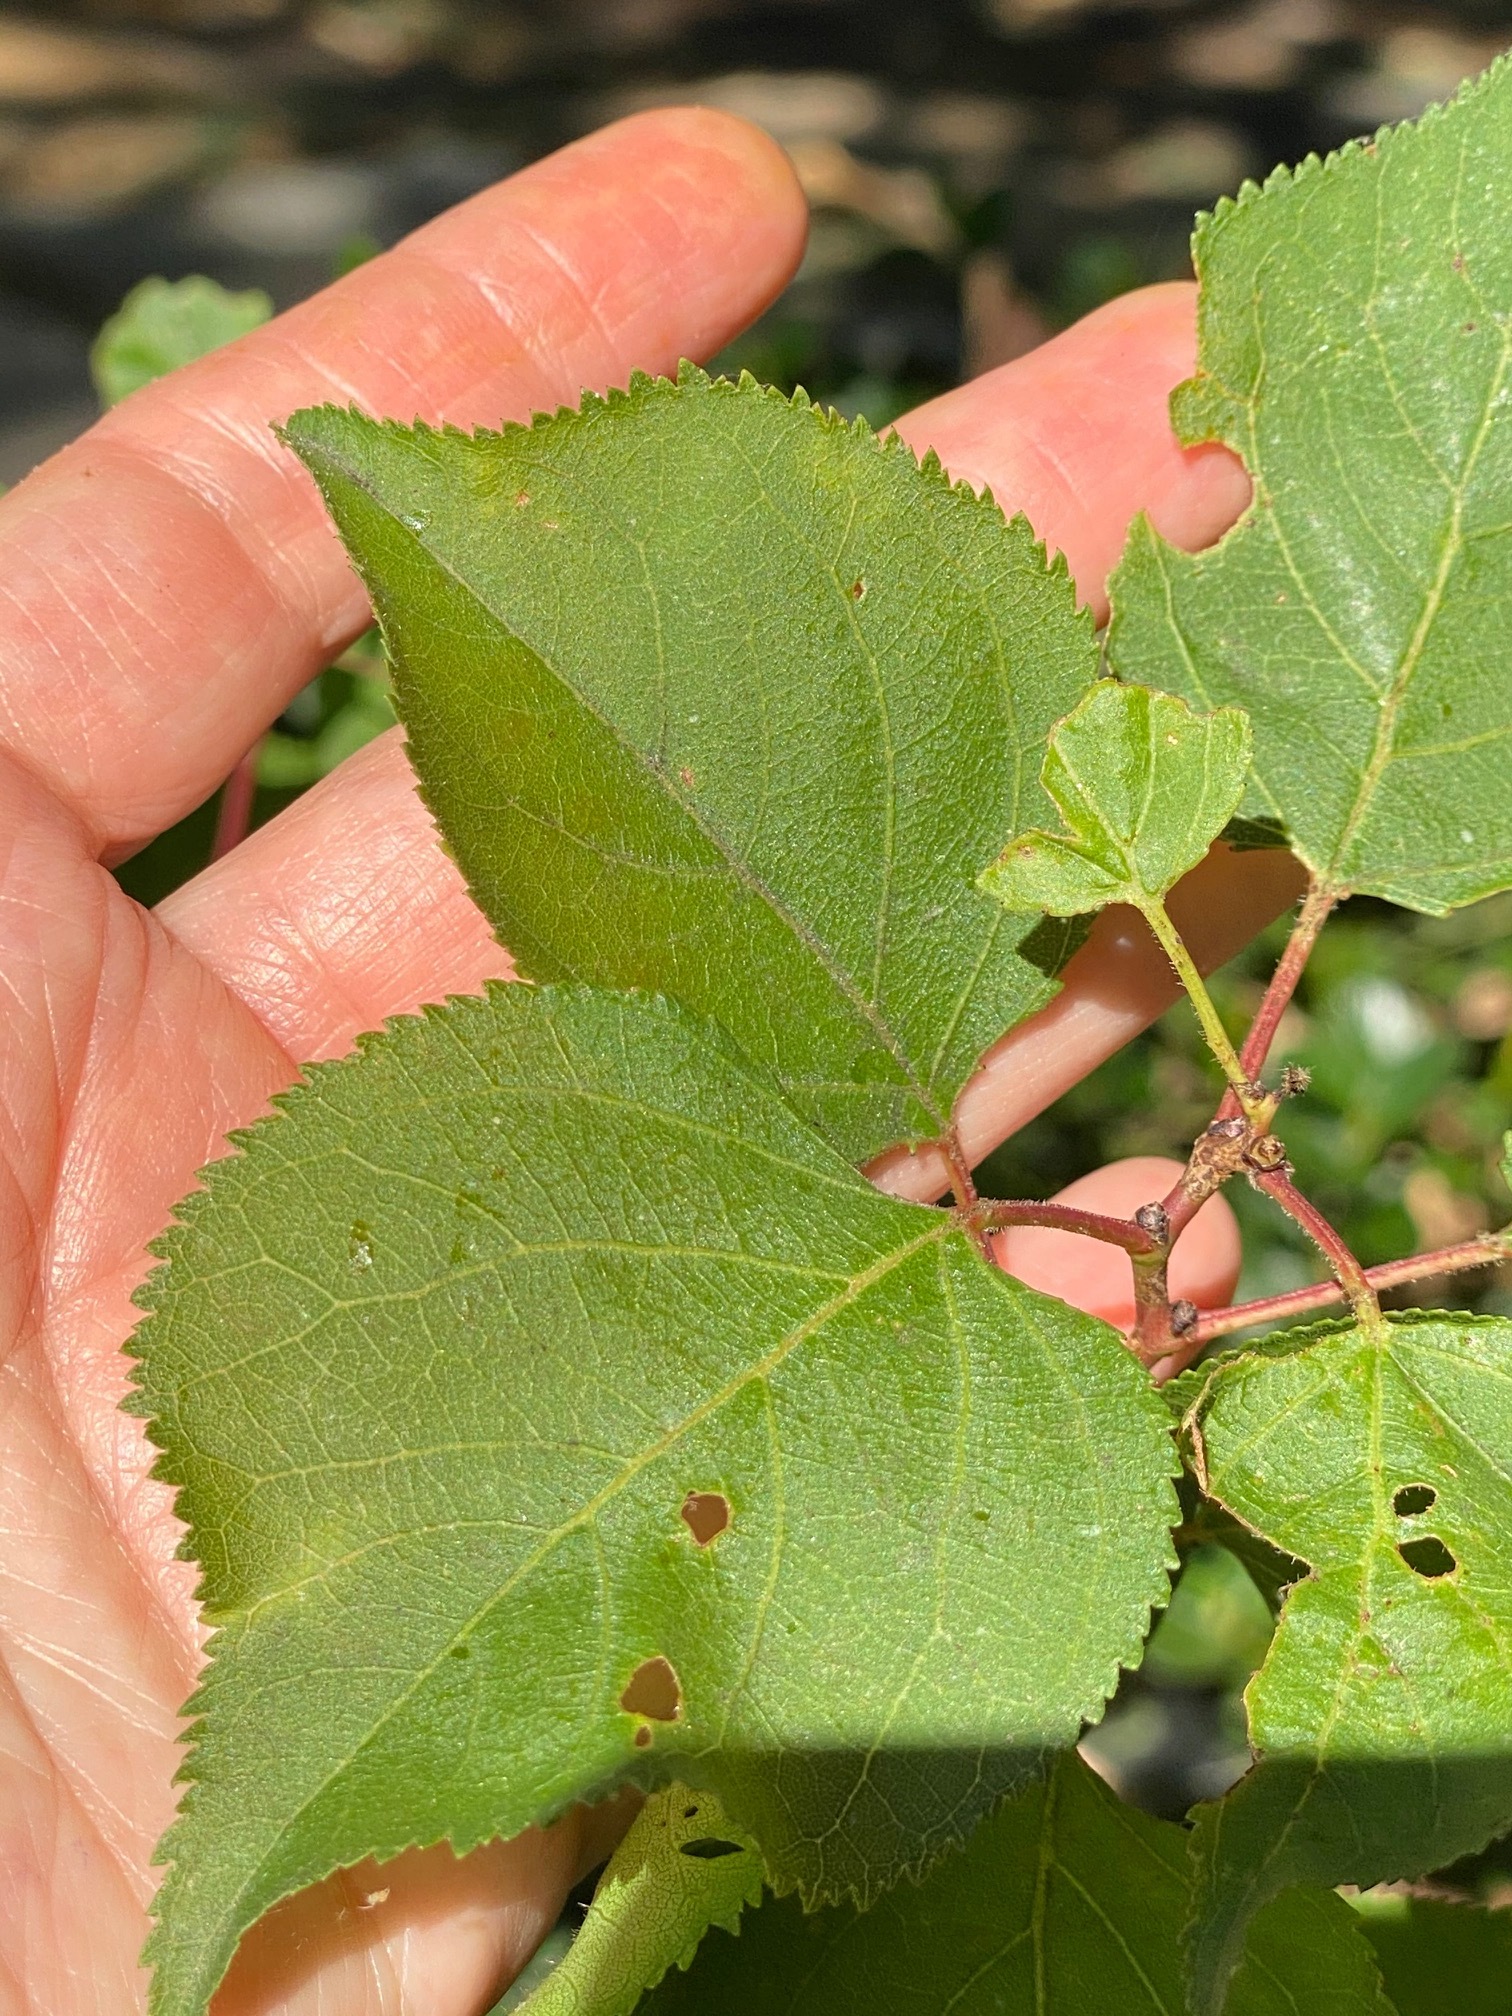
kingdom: Plantae
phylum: Tracheophyta
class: Magnoliopsida
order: Rosales
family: Rosaceae
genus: Prunus
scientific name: Prunus armeniaca
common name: Apricot
